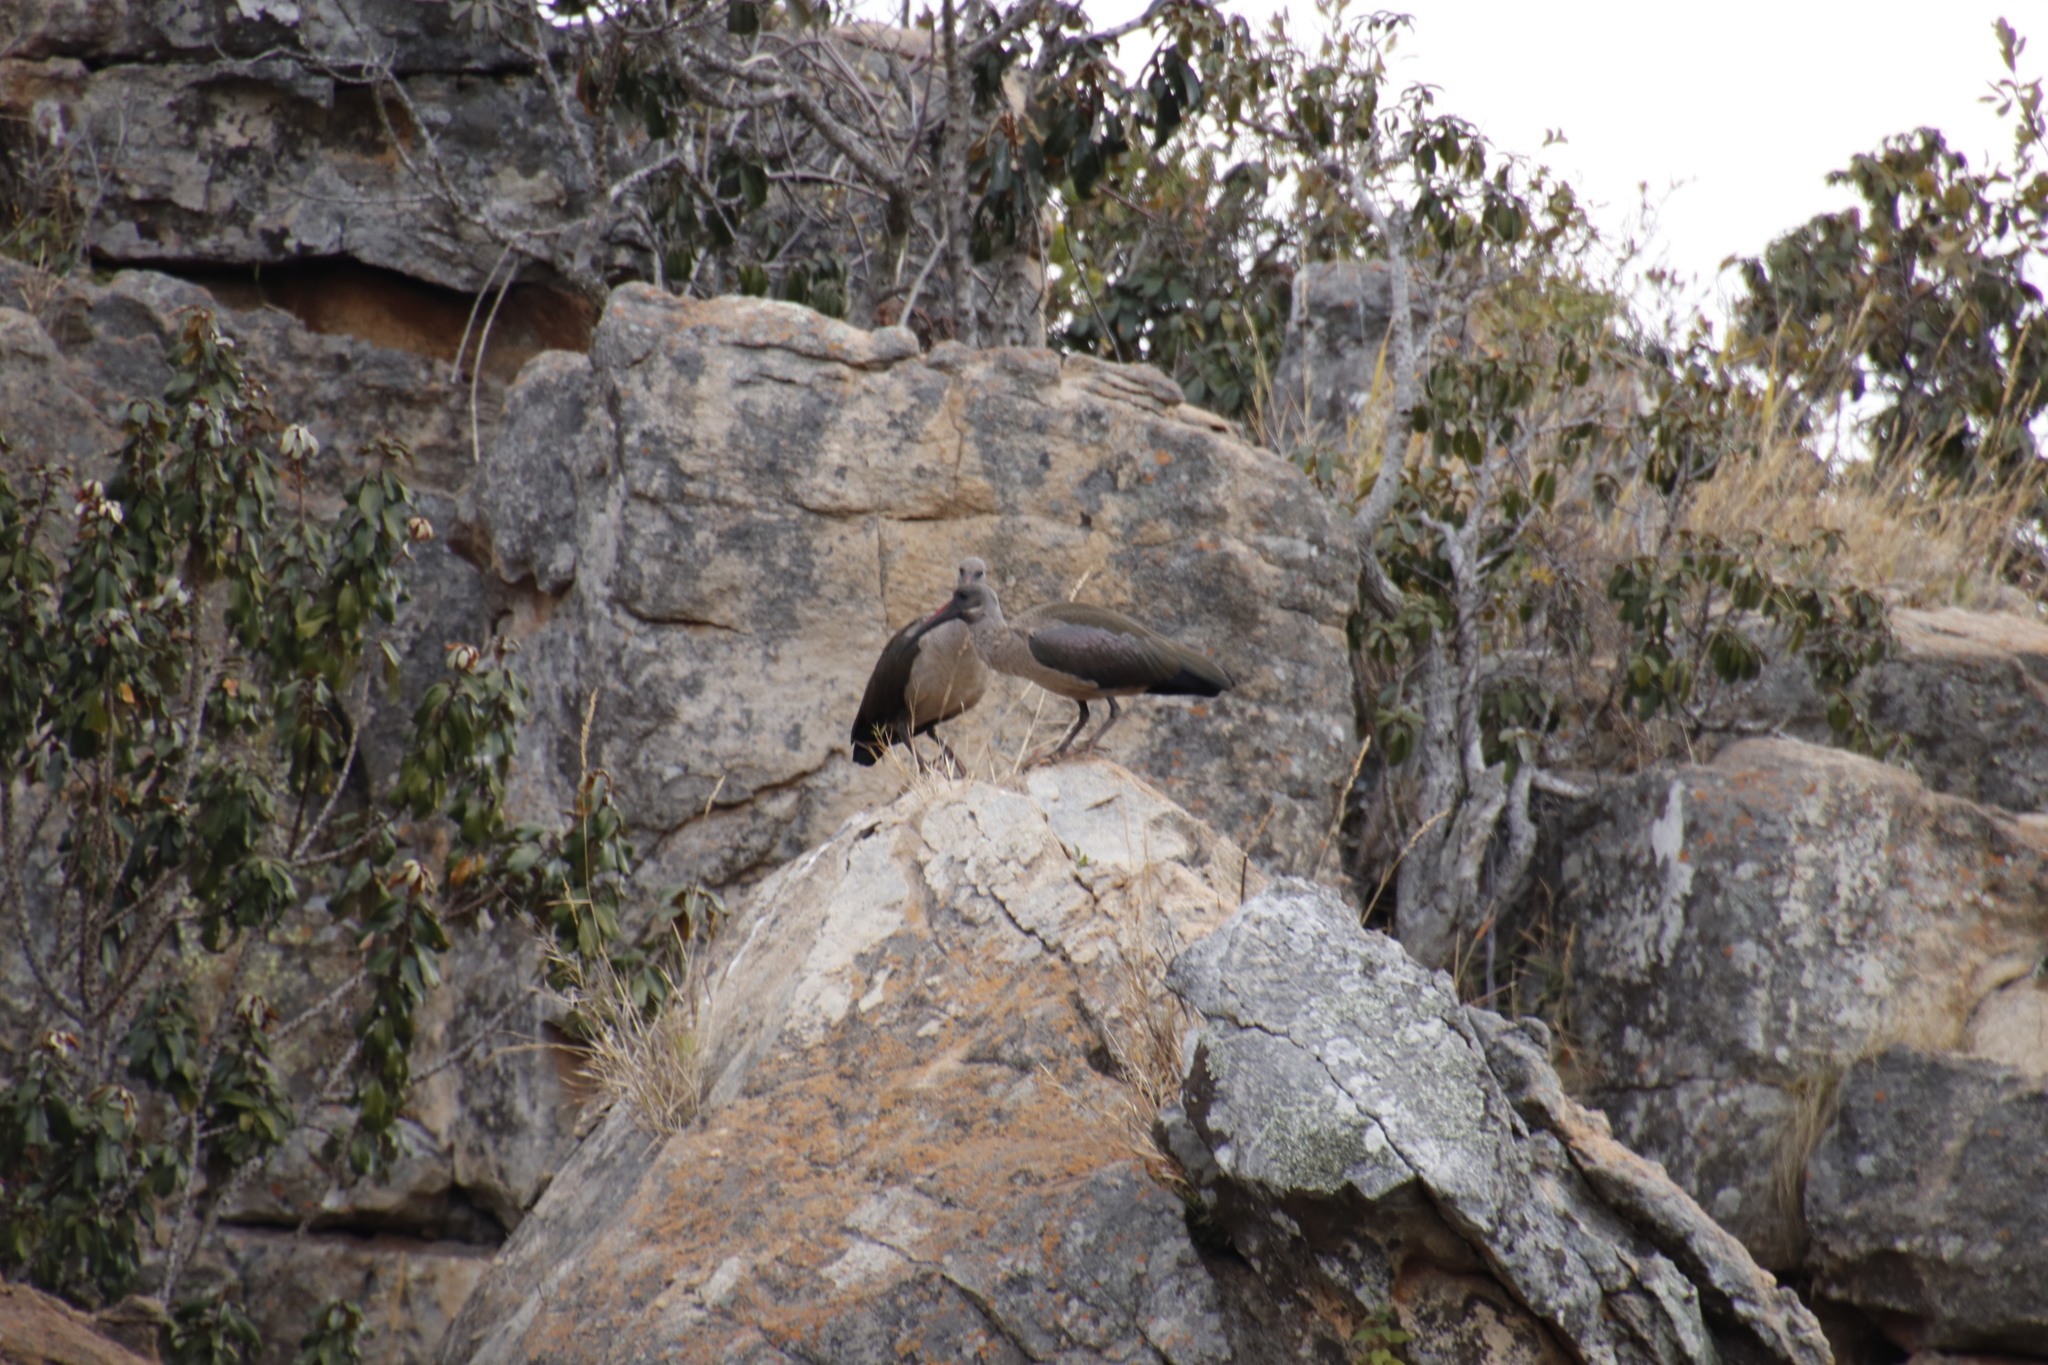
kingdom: Animalia
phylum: Chordata
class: Aves
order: Pelecaniformes
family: Threskiornithidae
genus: Bostrychia
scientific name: Bostrychia hagedash
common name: Hadada ibis
